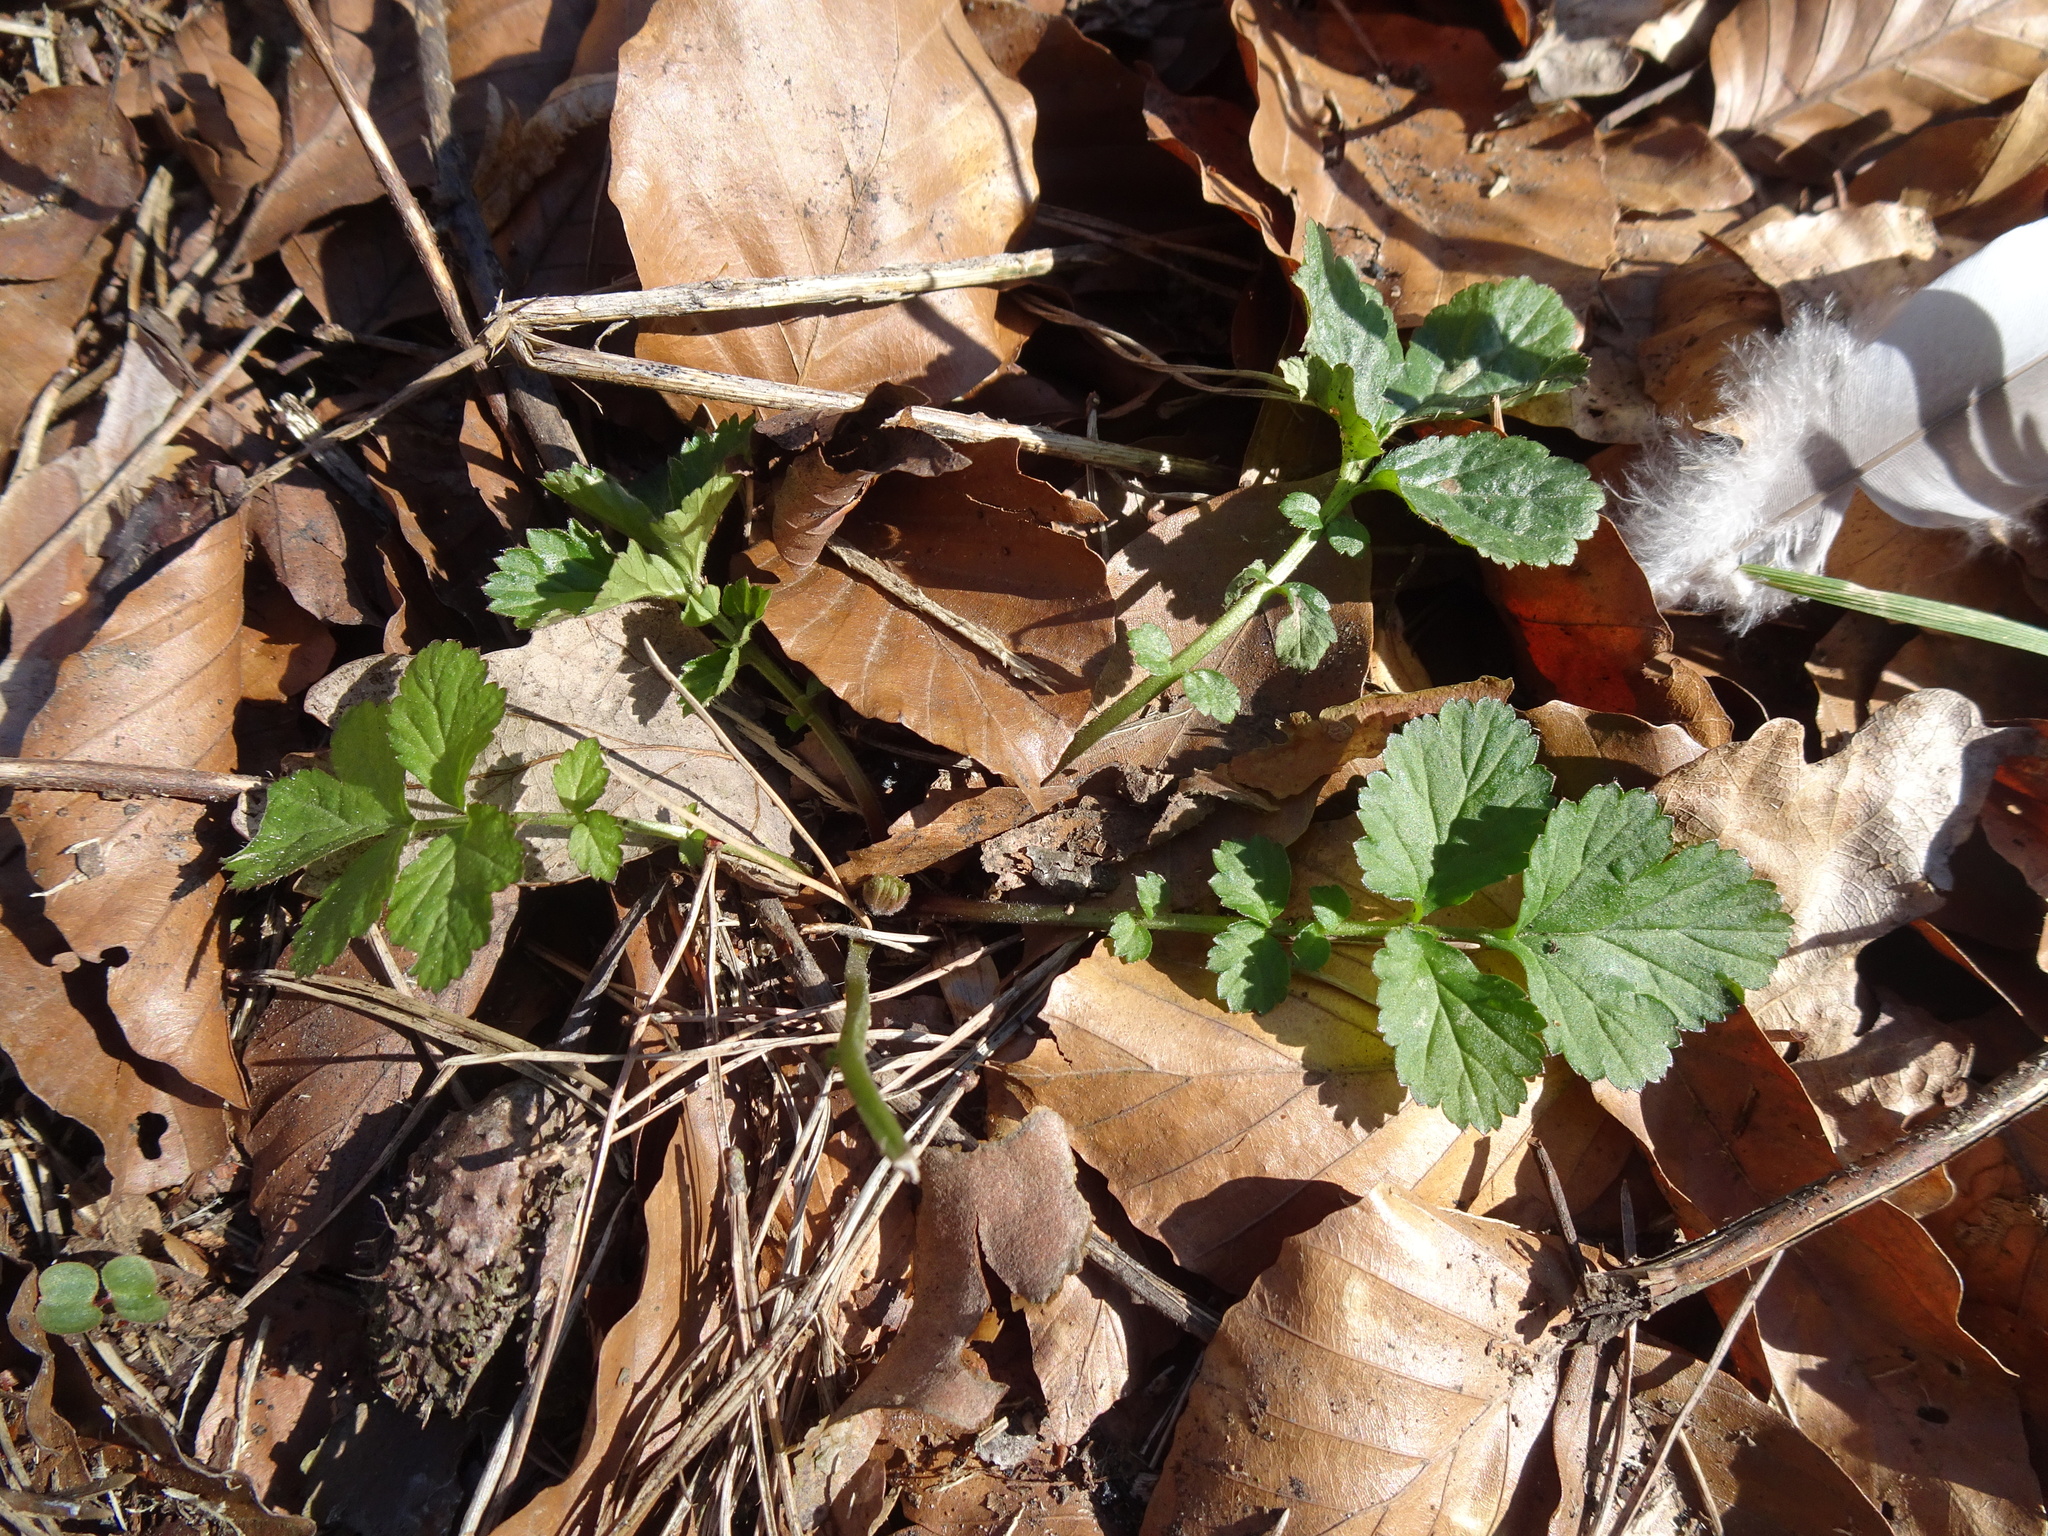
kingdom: Plantae
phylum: Tracheophyta
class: Magnoliopsida
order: Rosales
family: Rosaceae
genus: Geum
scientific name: Geum urbanum
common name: Wood avens
